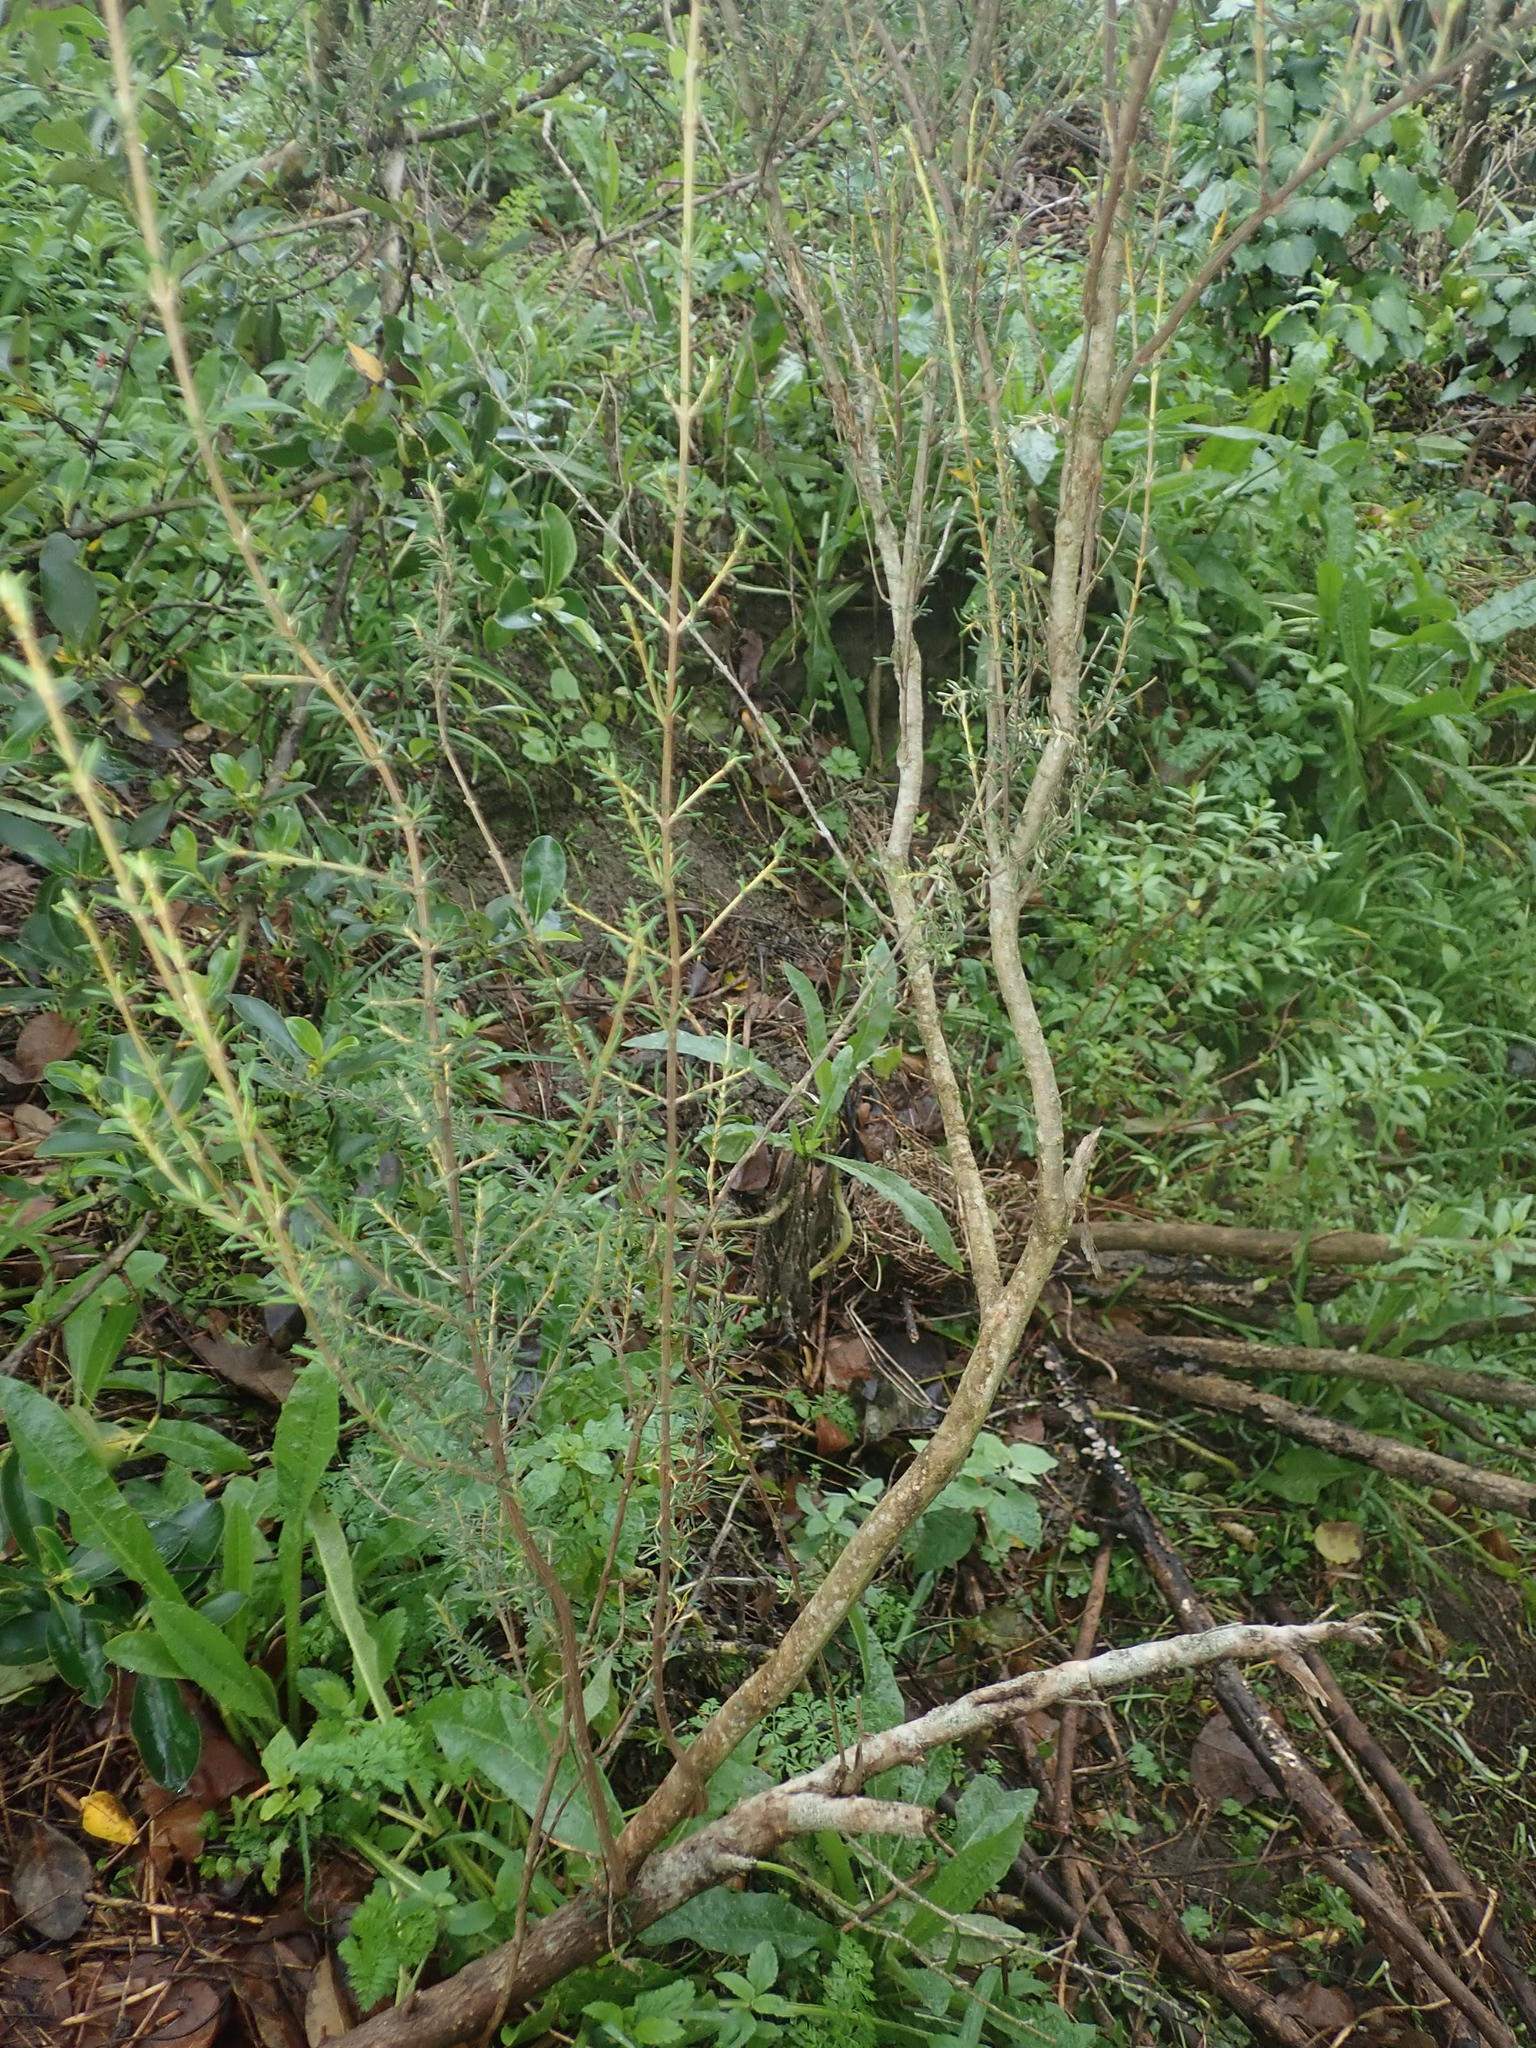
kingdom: Plantae
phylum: Tracheophyta
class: Magnoliopsida
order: Asterales
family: Asteraceae
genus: Olearia
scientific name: Olearia solandri
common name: Coastal daisybush
